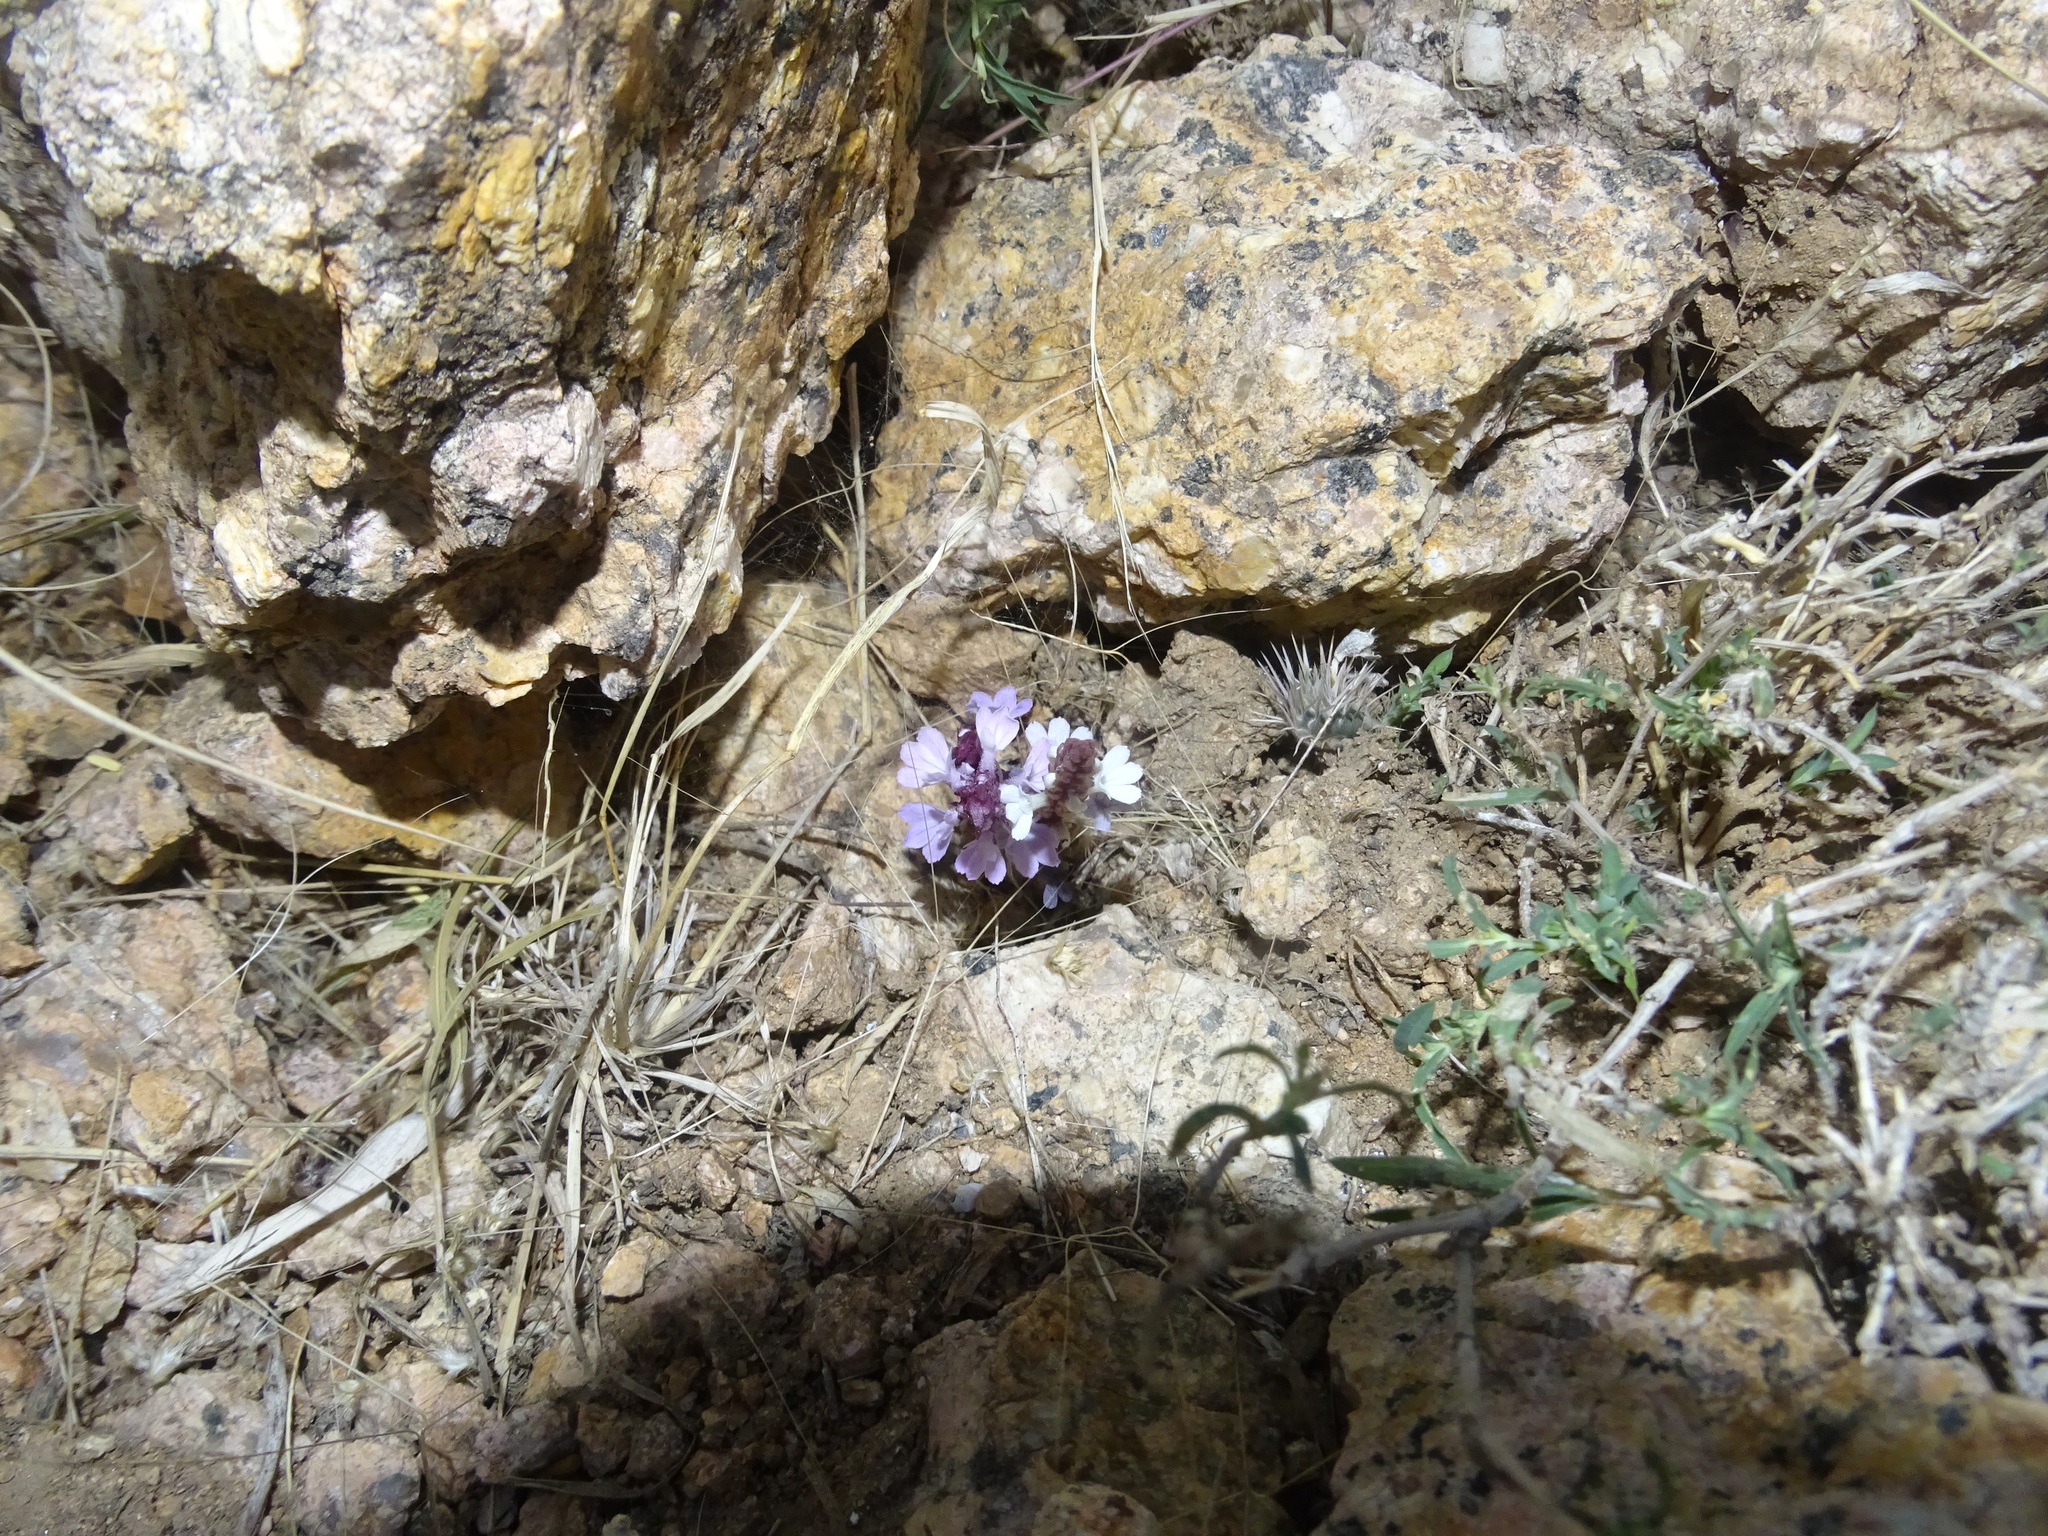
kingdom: Plantae
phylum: Tracheophyta
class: Magnoliopsida
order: Lamiales
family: Orobanchaceae
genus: Striga
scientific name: Striga gesnerioides
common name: Cowpea witchweed
